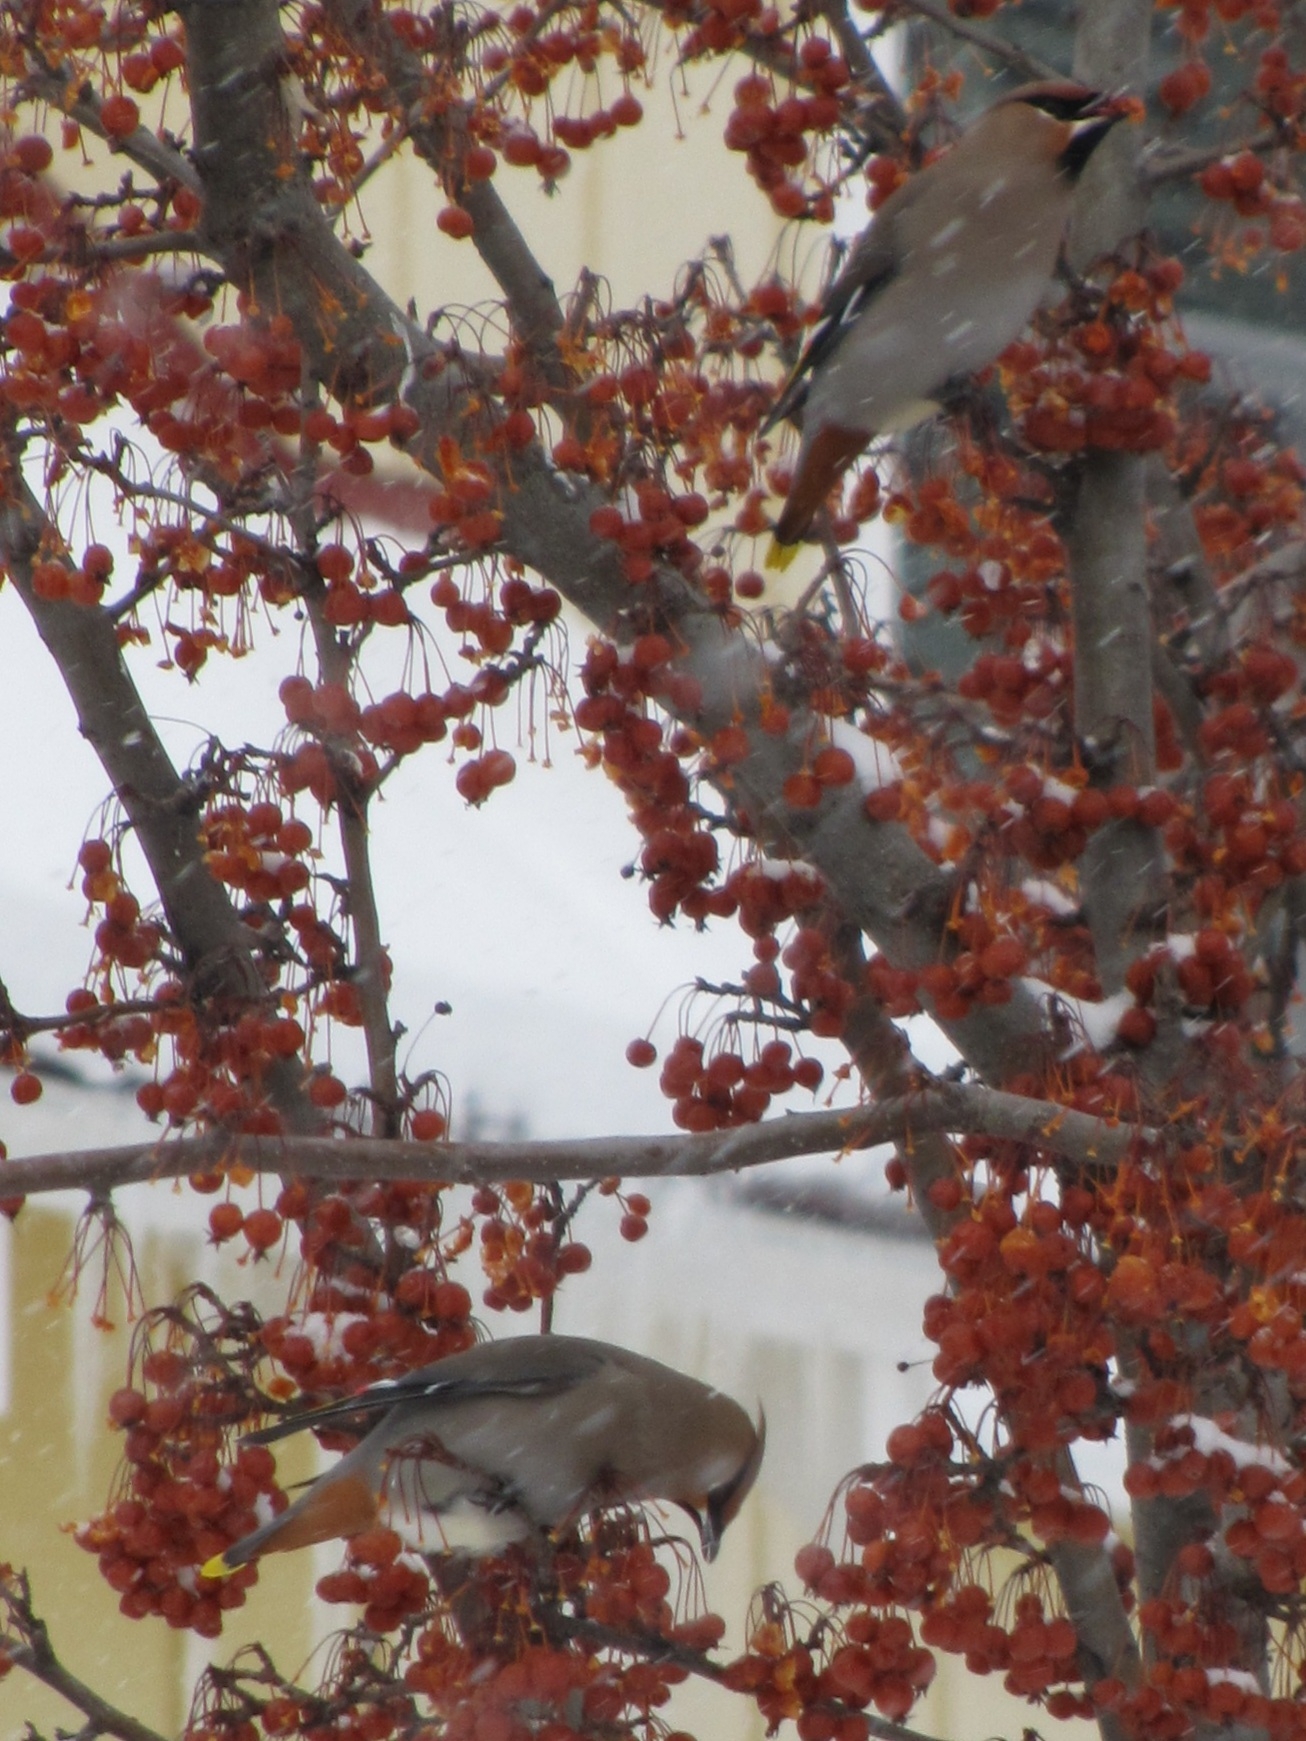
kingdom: Animalia
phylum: Chordata
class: Aves
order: Passeriformes
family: Bombycillidae
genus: Bombycilla
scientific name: Bombycilla garrulus
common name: Bohemian waxwing
